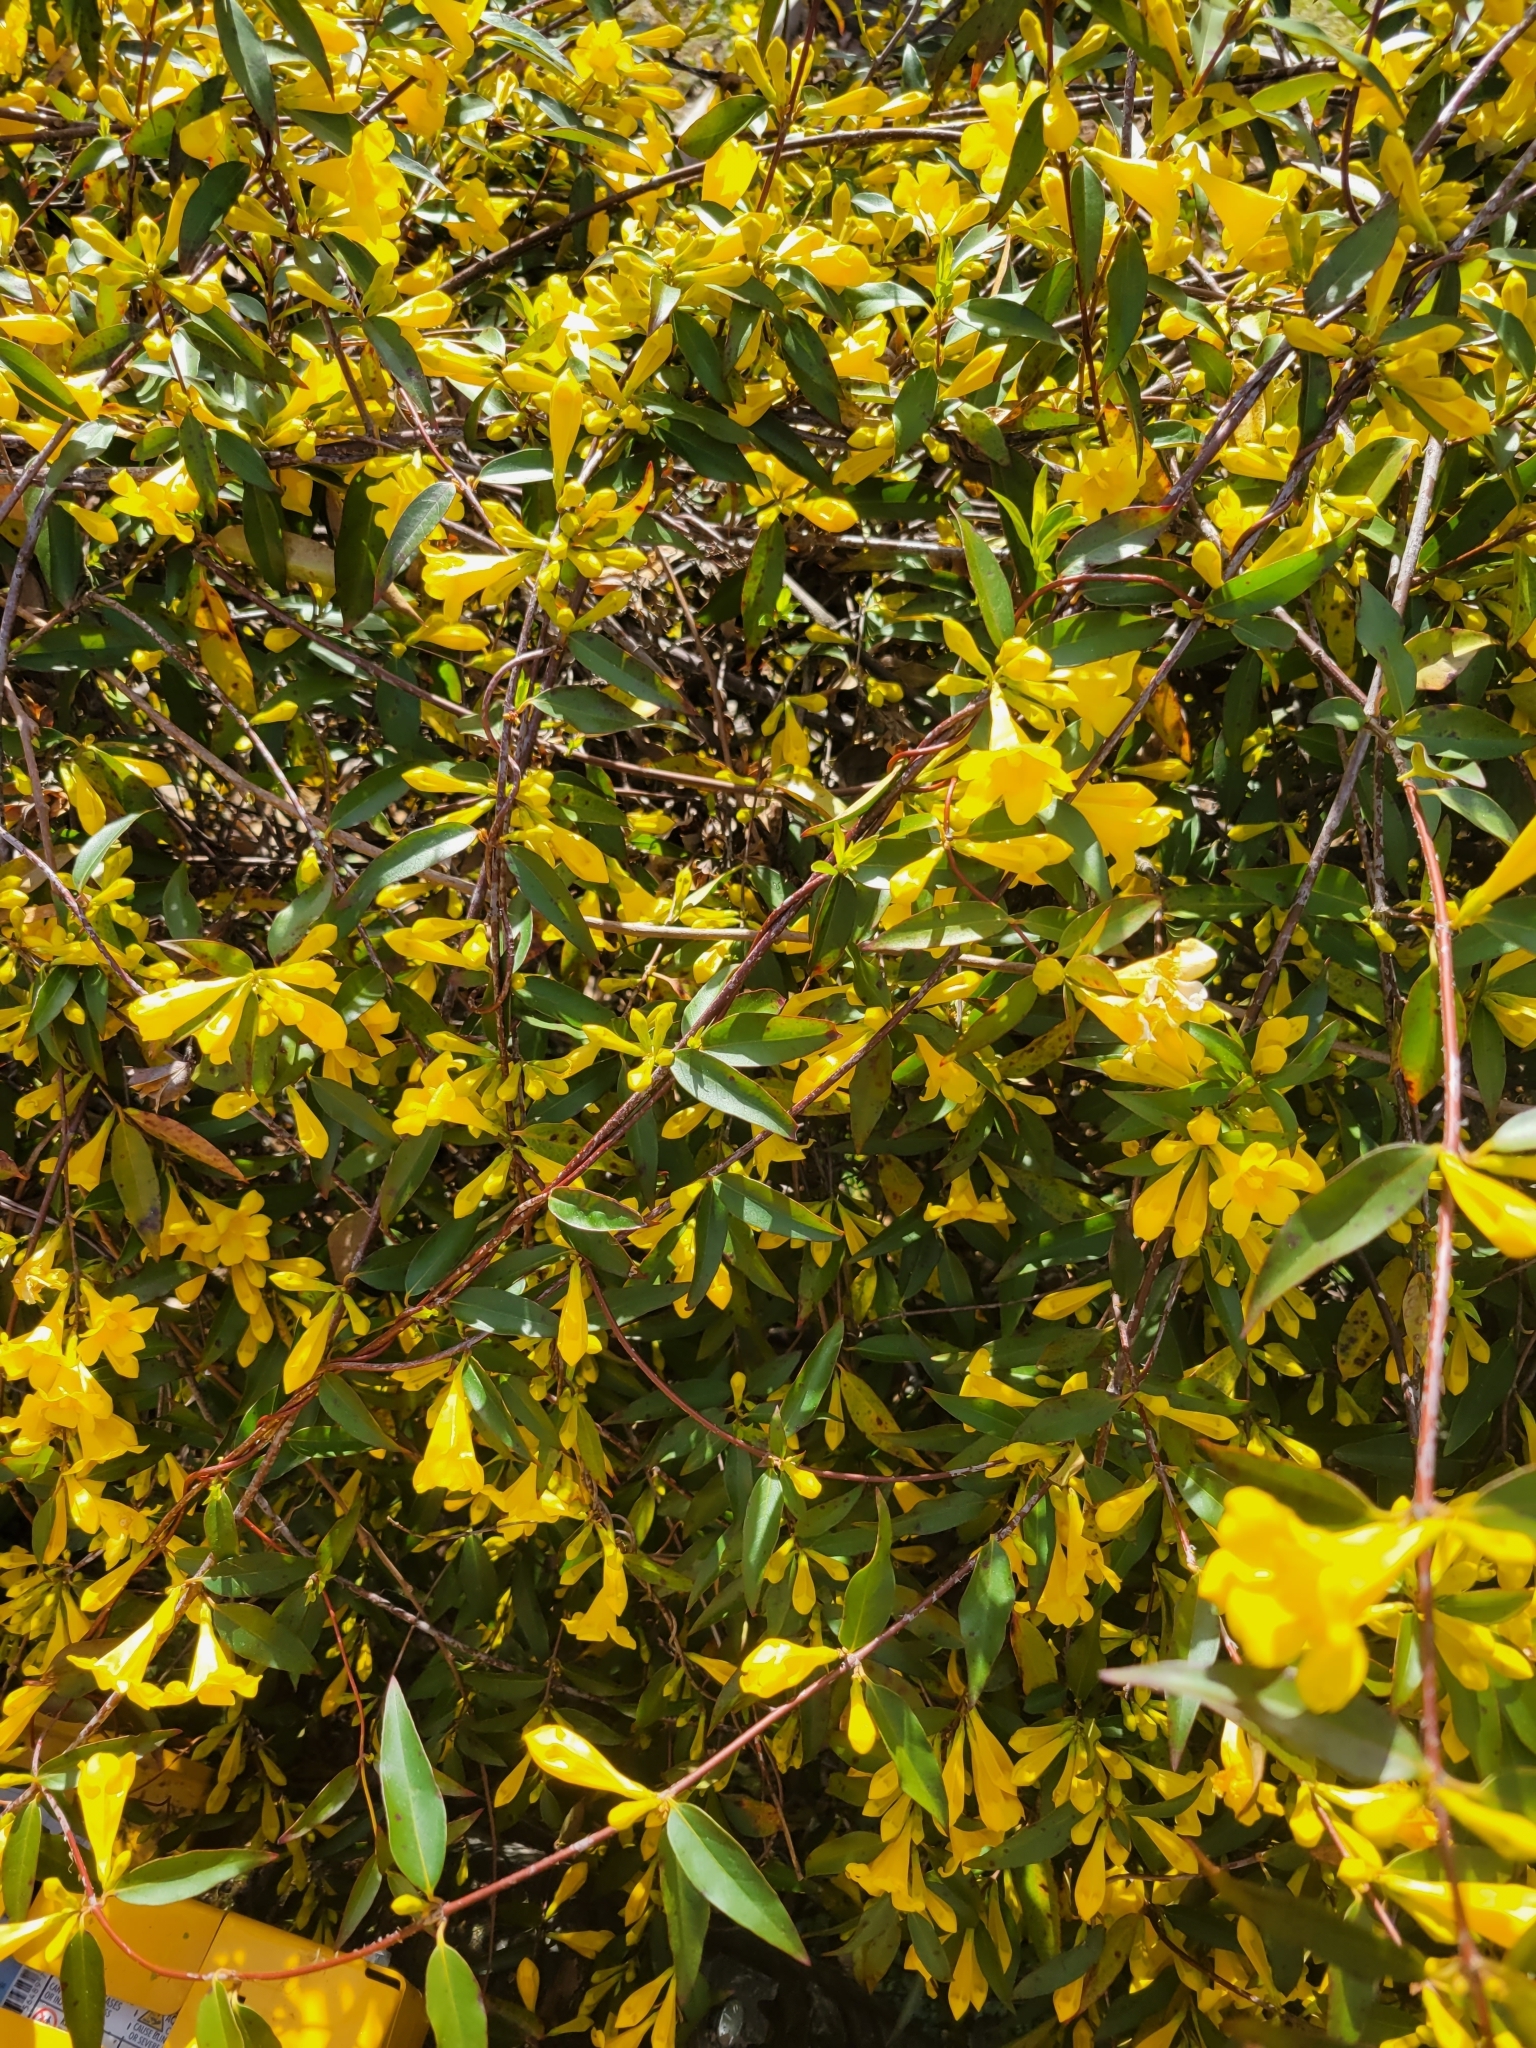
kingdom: Plantae
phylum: Tracheophyta
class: Magnoliopsida
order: Gentianales
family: Gelsemiaceae
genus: Gelsemium
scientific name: Gelsemium sempervirens
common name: Carolina-jasmine
